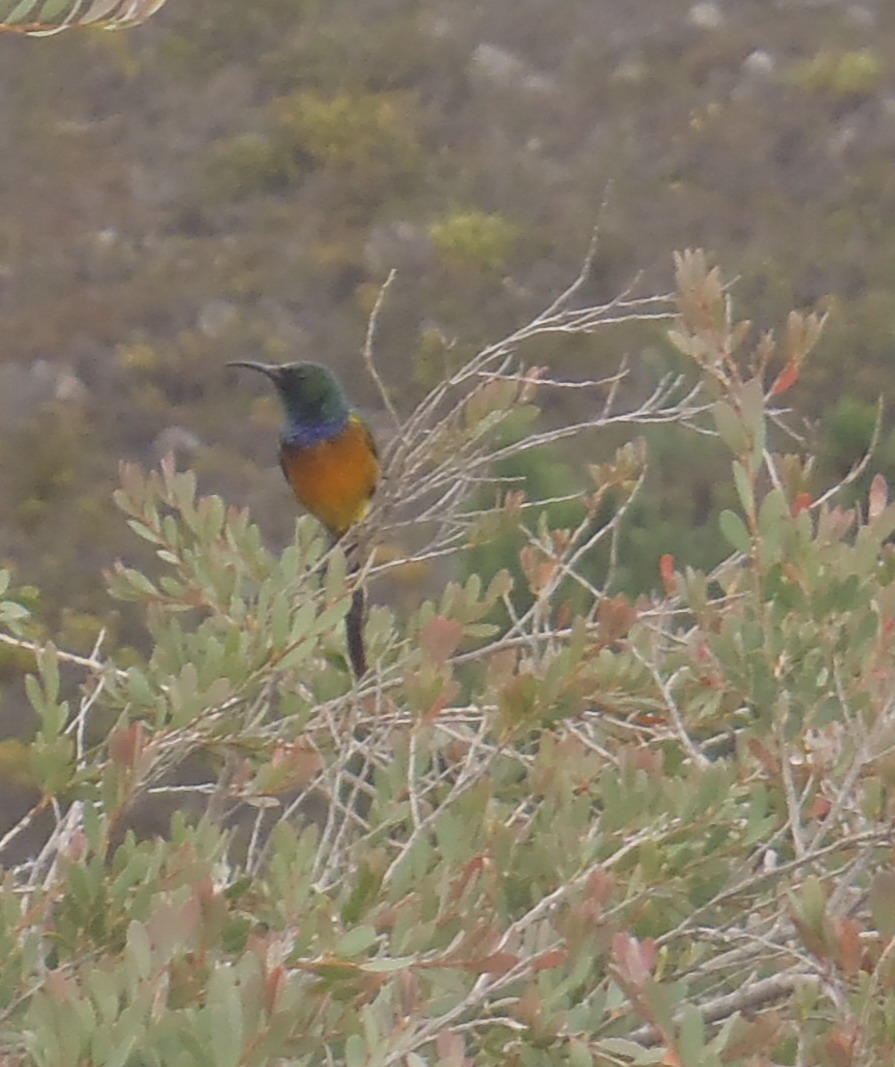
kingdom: Animalia
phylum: Chordata
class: Aves
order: Passeriformes
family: Nectariniidae
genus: Anthobaphes
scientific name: Anthobaphes violacea
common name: Orange-breasted sunbird
